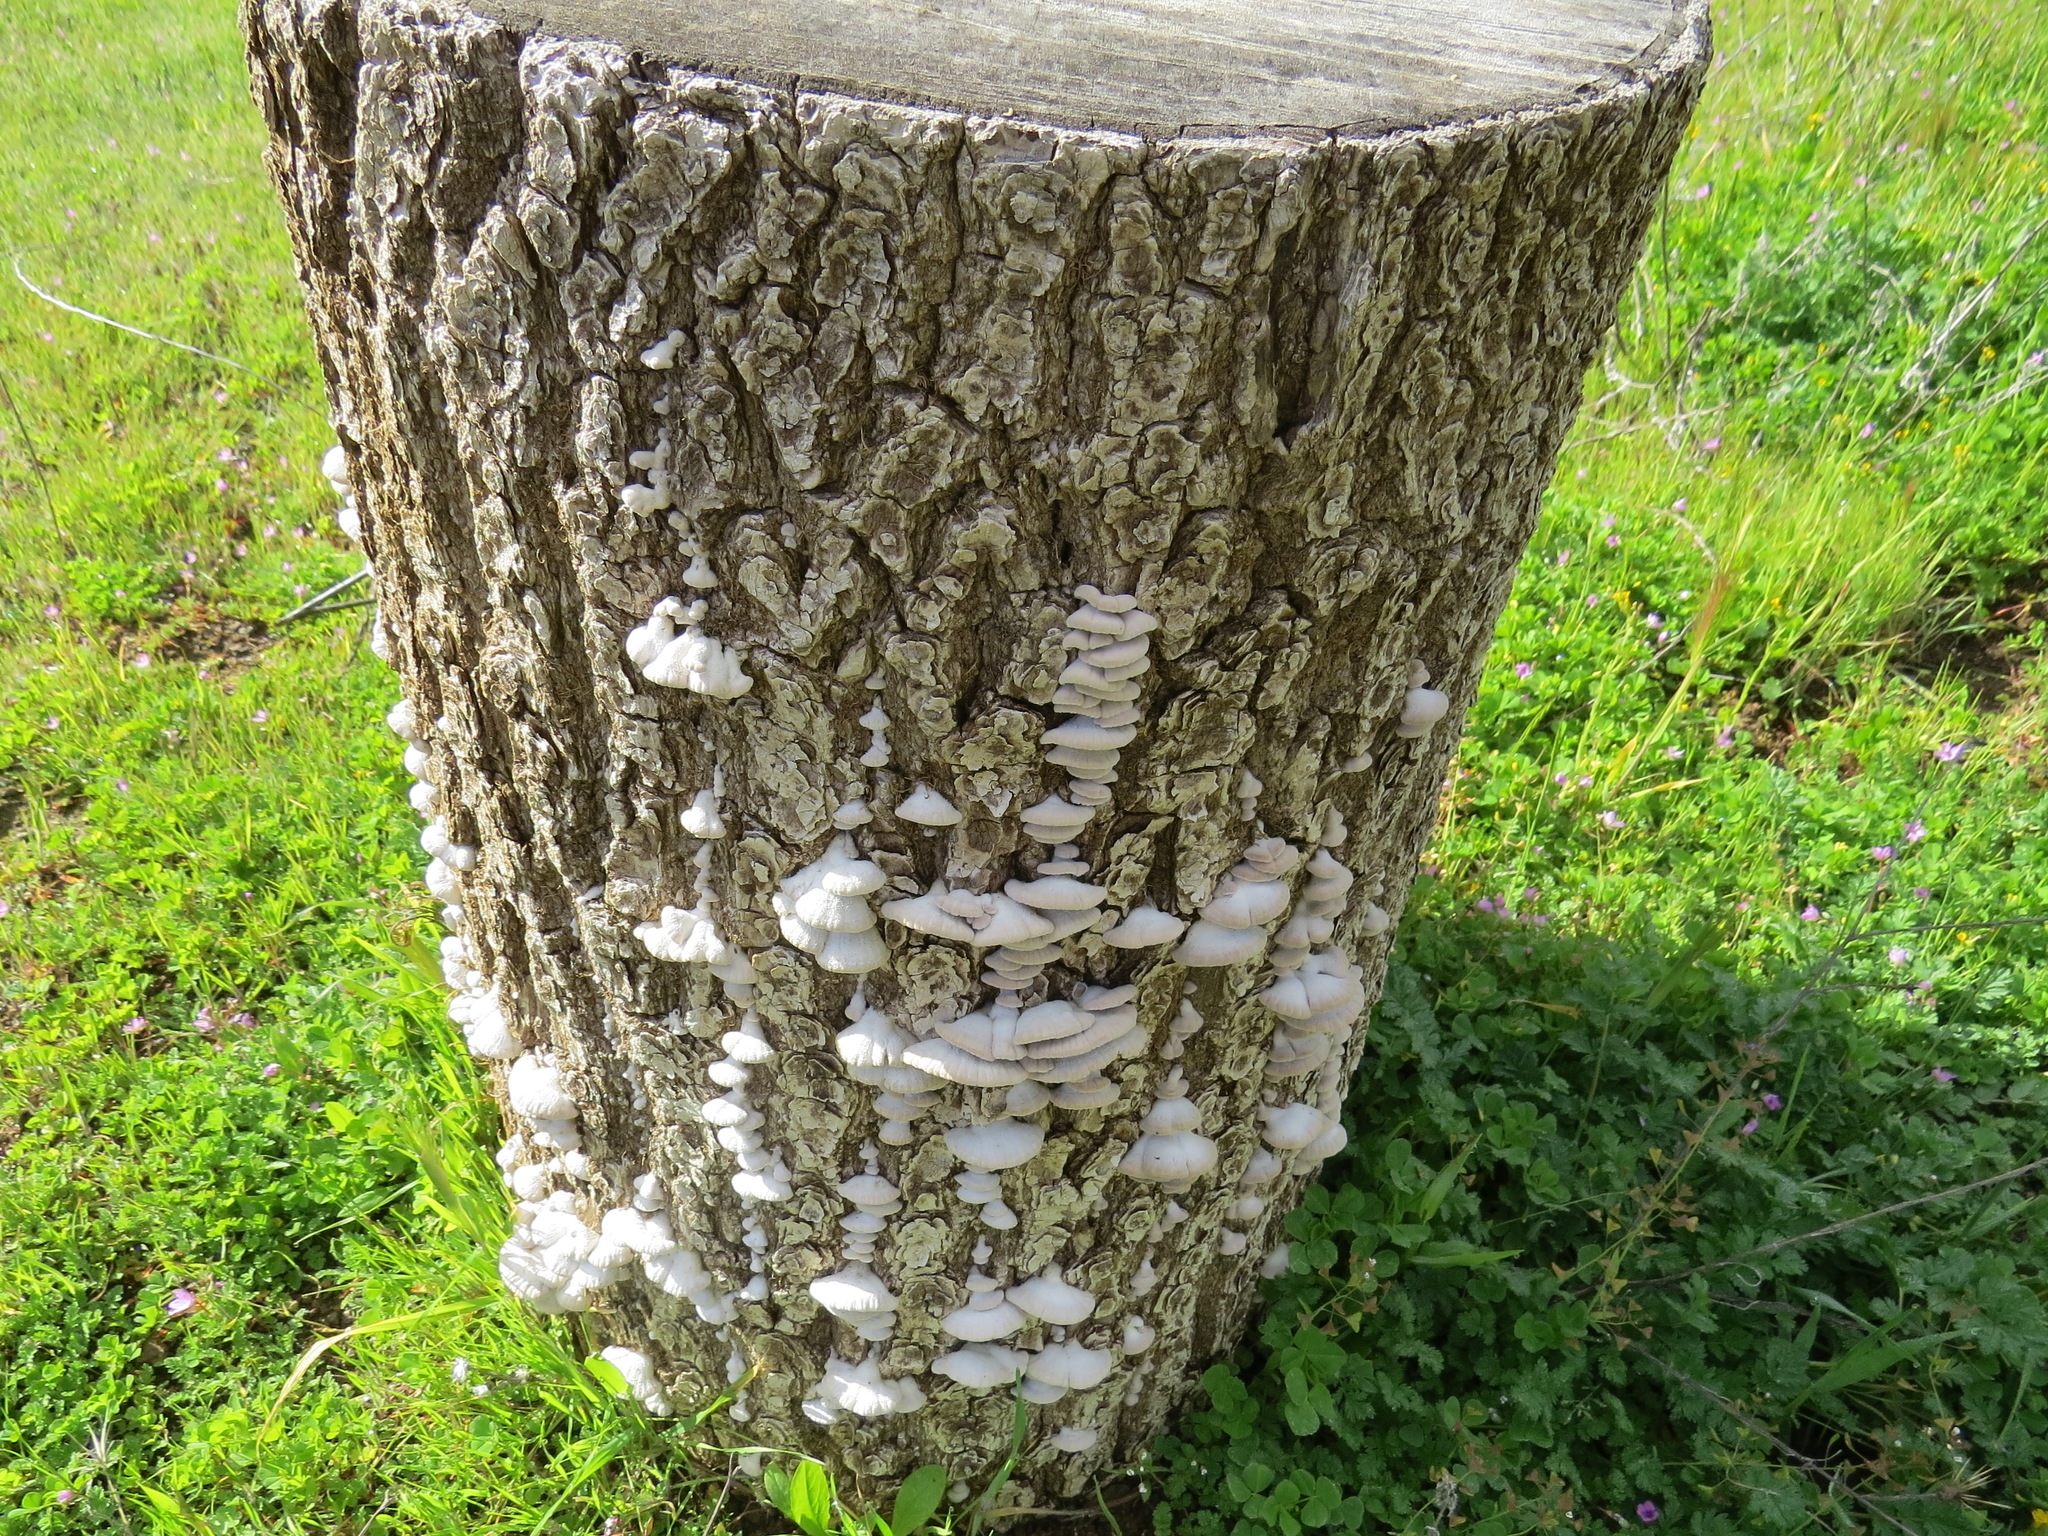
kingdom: Fungi
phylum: Basidiomycota
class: Agaricomycetes
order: Agaricales
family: Schizophyllaceae
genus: Schizophyllum
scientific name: Schizophyllum commune
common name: Common porecrust
